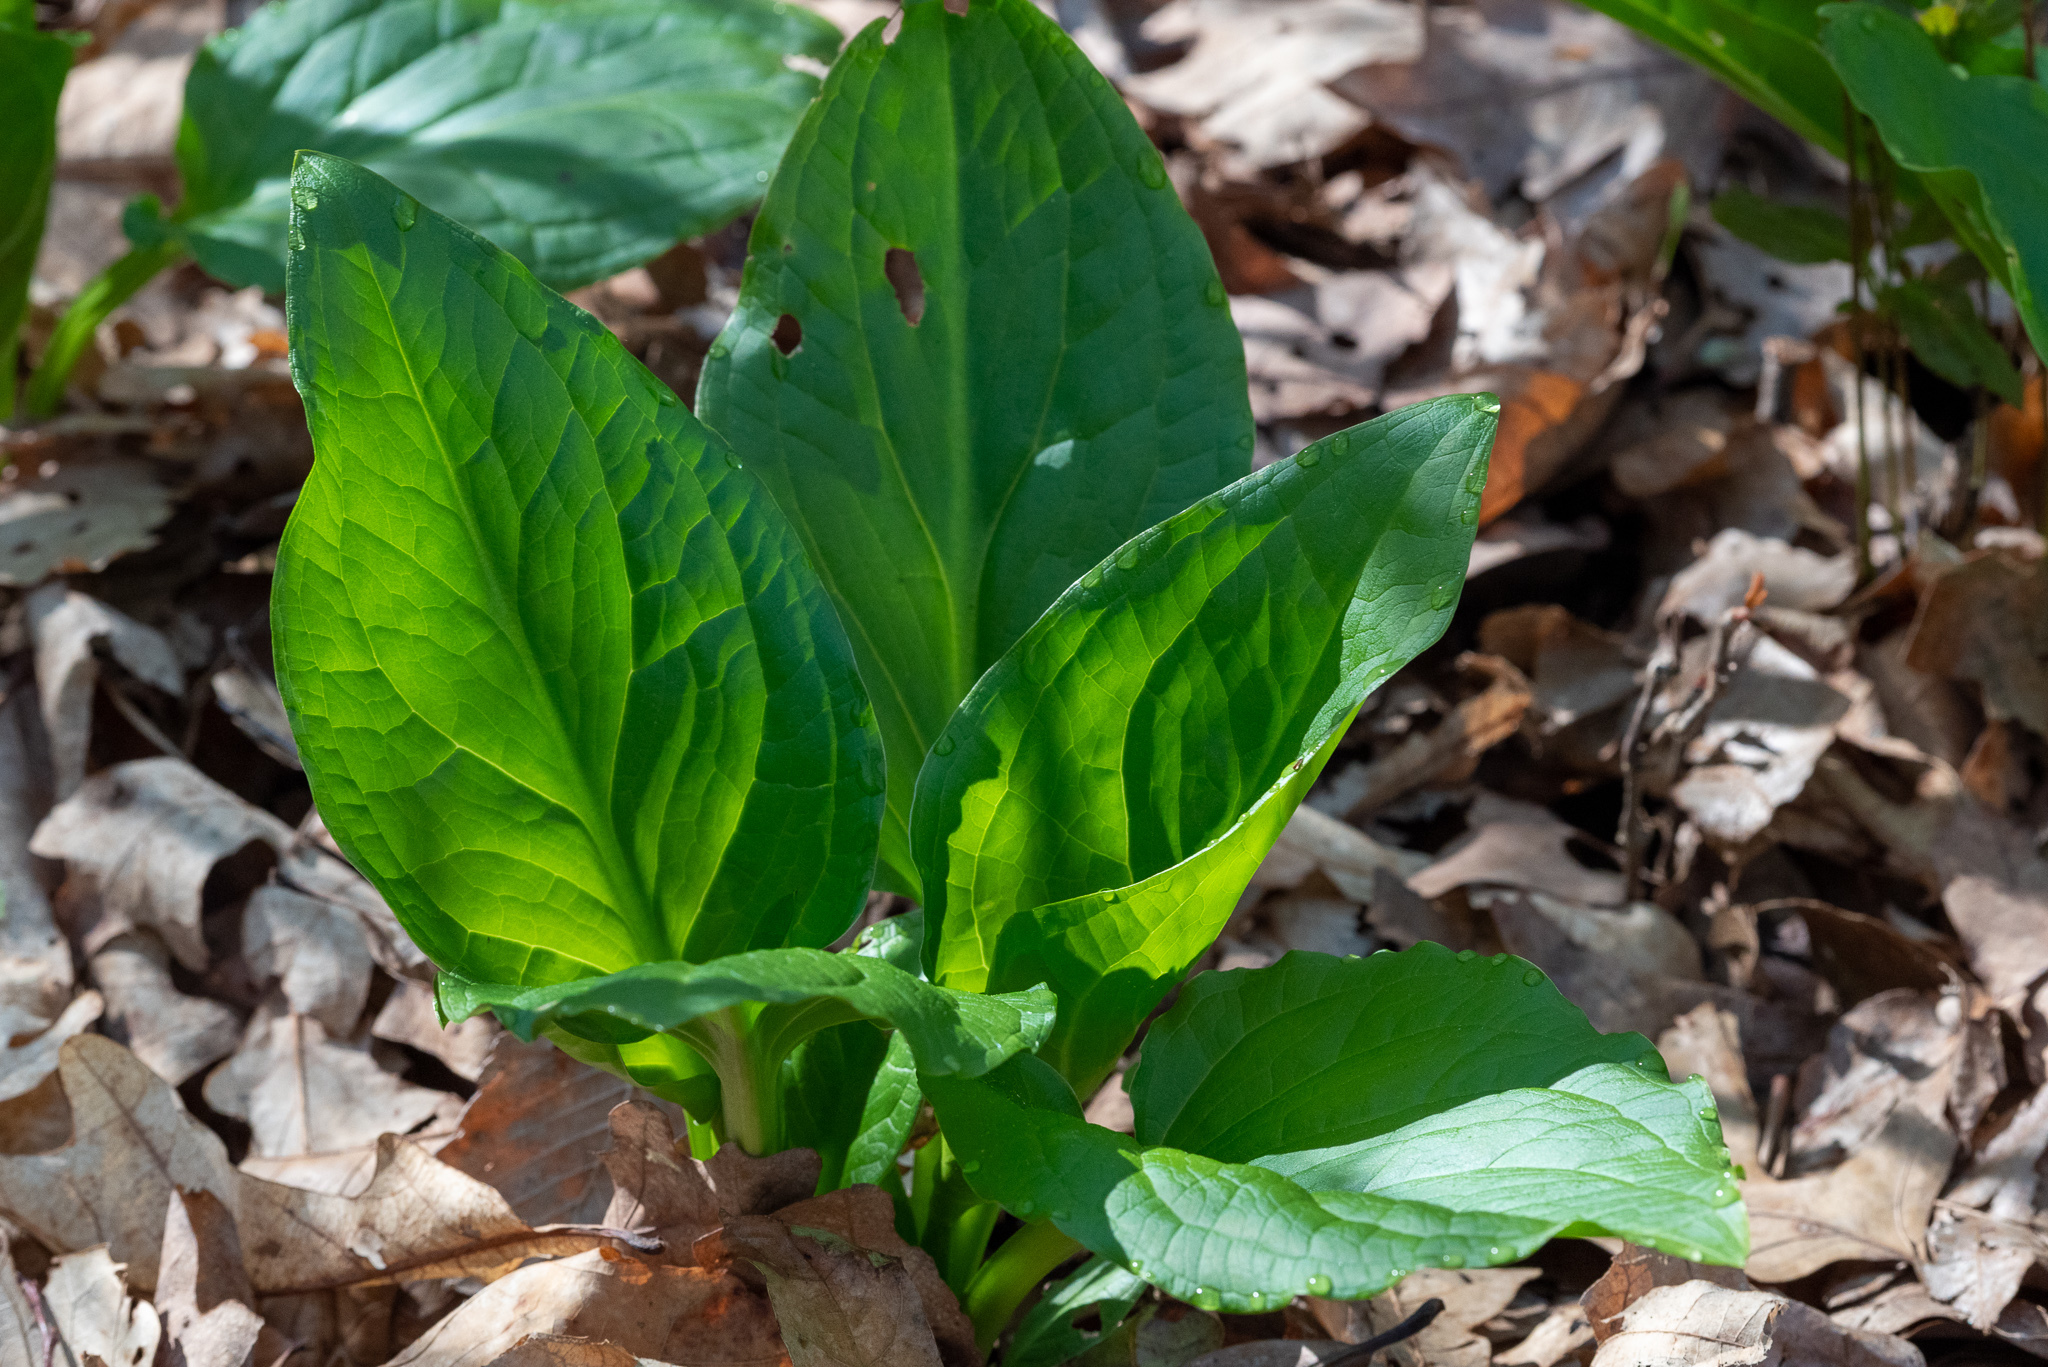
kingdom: Plantae
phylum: Tracheophyta
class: Liliopsida
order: Alismatales
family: Araceae
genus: Symplocarpus
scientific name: Symplocarpus foetidus
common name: Eastern skunk cabbage
